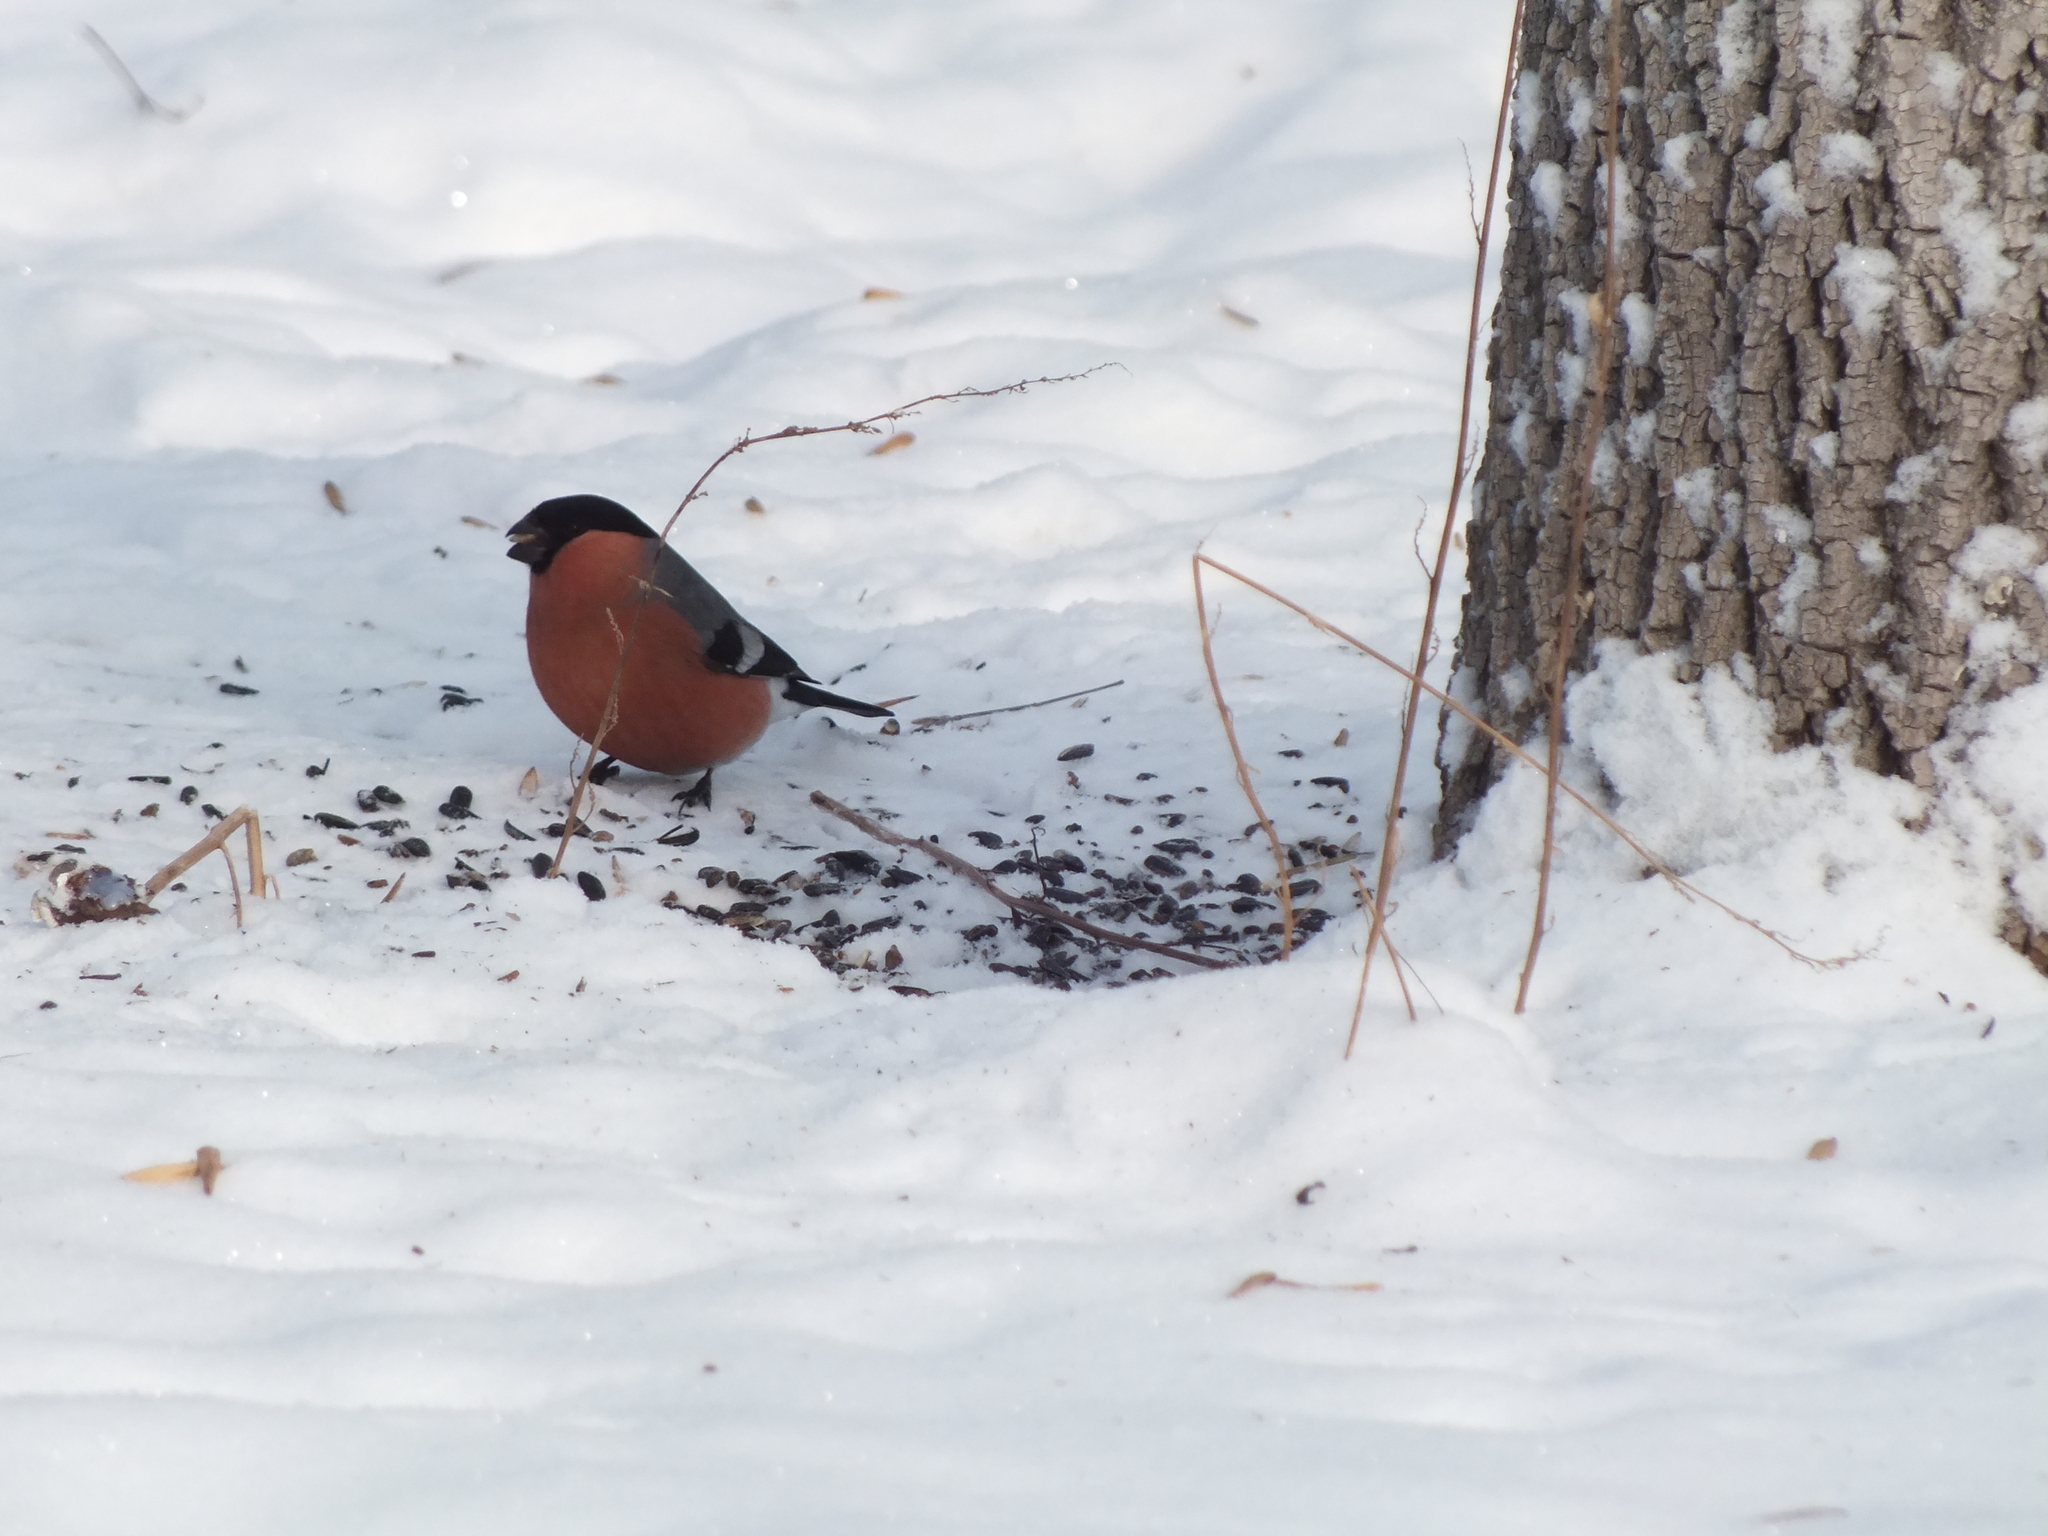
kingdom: Animalia
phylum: Chordata
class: Aves
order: Passeriformes
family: Fringillidae
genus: Pyrrhula
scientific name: Pyrrhula pyrrhula
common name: Eurasian bullfinch
